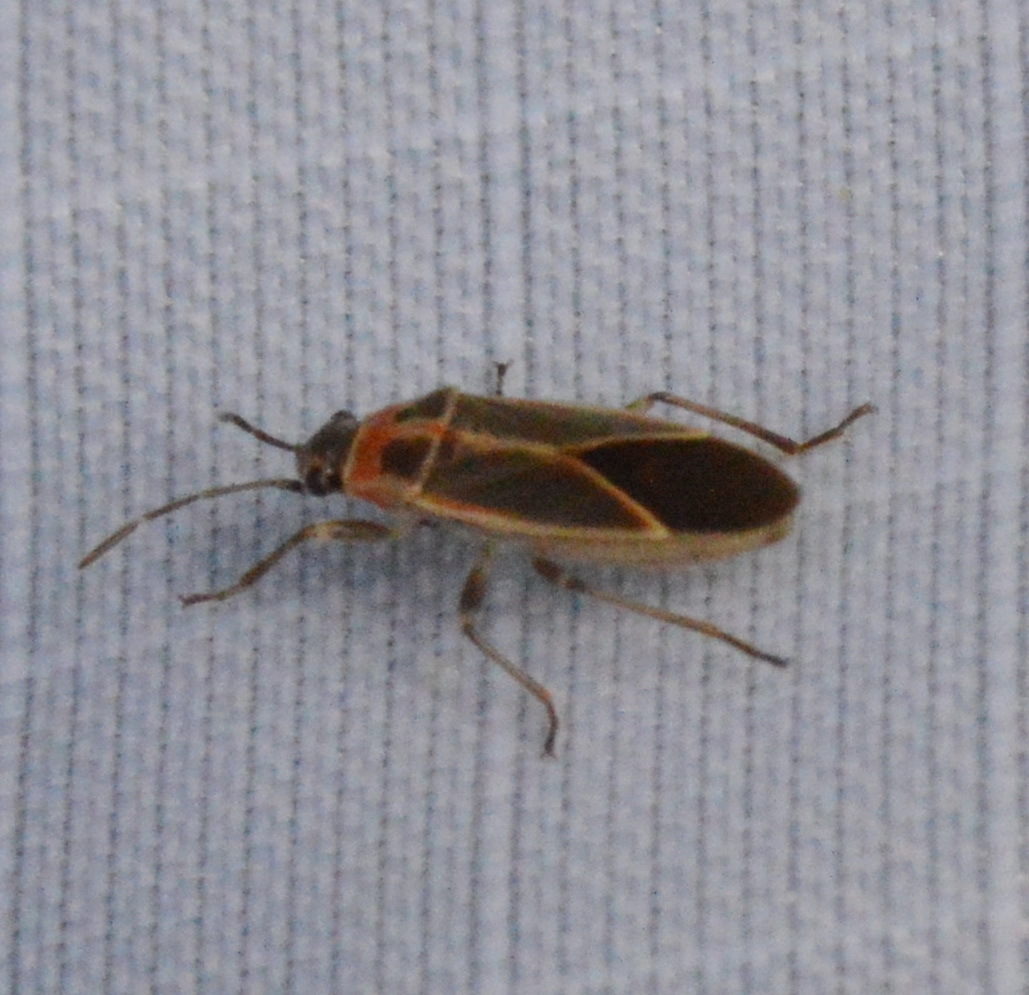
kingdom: Animalia
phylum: Arthropoda
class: Insecta
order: Hemiptera
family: Lygaeidae
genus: Ochrimnus
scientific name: Ochrimnus mimulus
